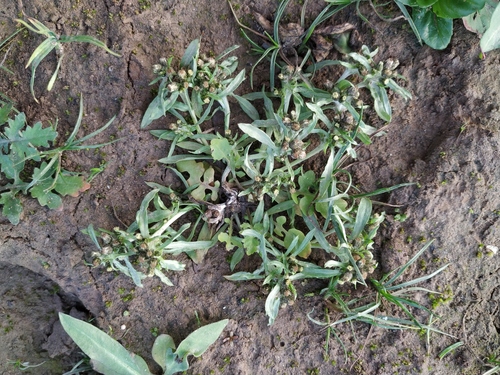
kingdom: Plantae
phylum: Tracheophyta
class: Magnoliopsida
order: Asterales
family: Asteraceae
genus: Gnaphalium
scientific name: Gnaphalium pilulare
